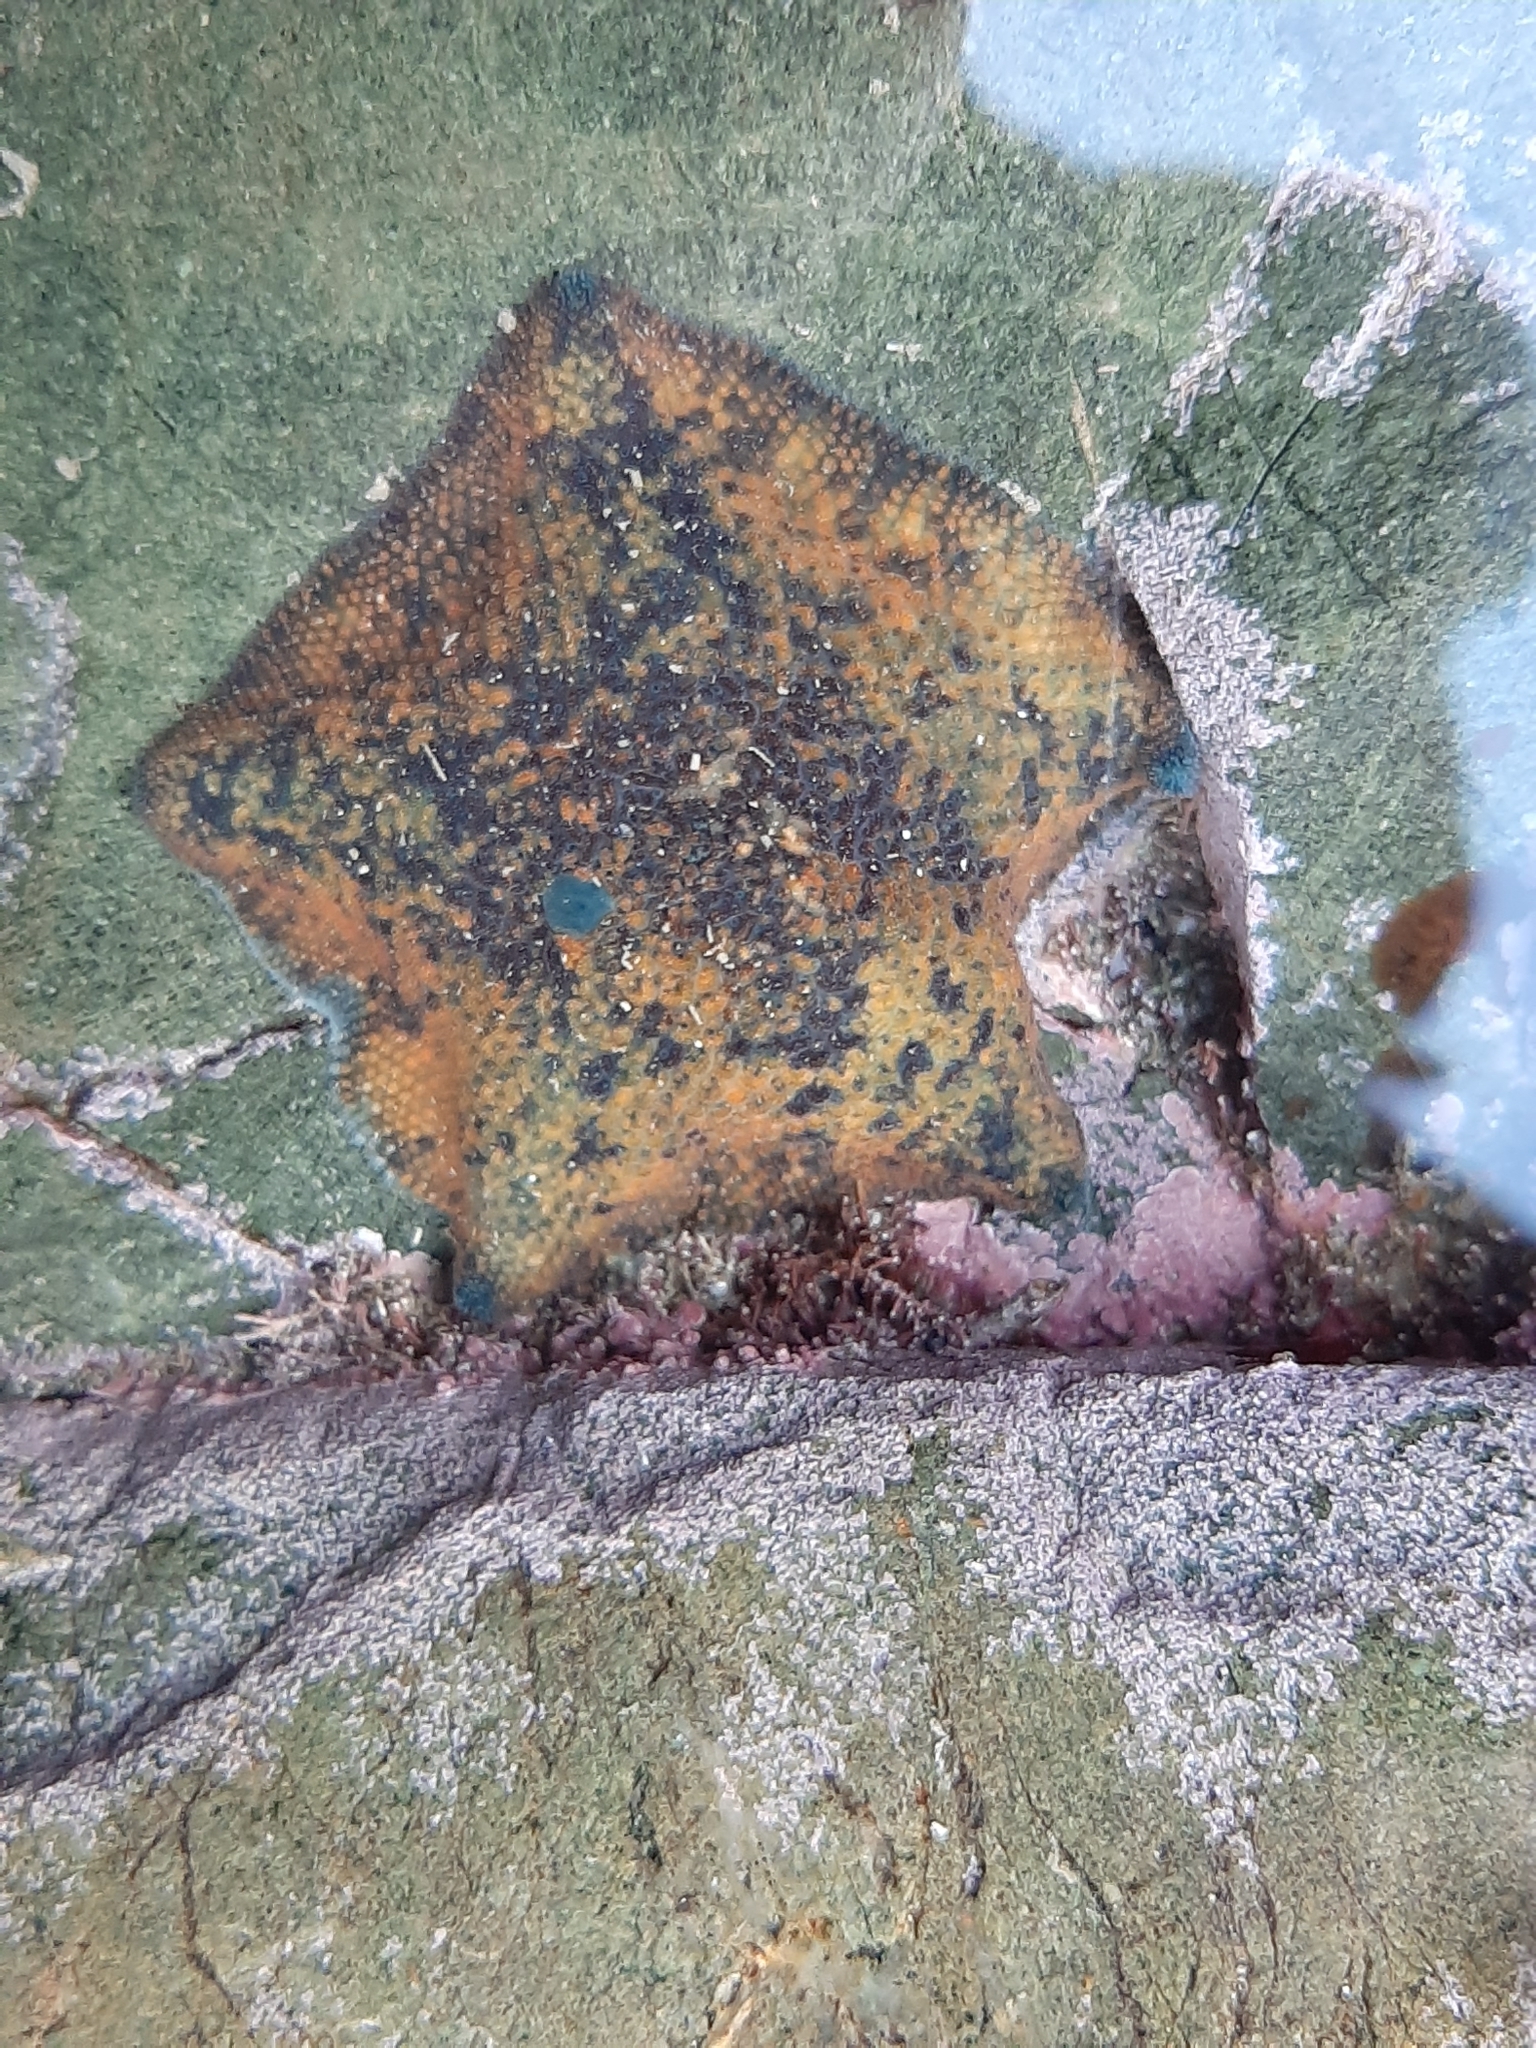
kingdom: Animalia
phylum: Echinodermata
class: Asteroidea
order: Valvatida
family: Asterinidae
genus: Patiriella
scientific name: Patiriella regularis
